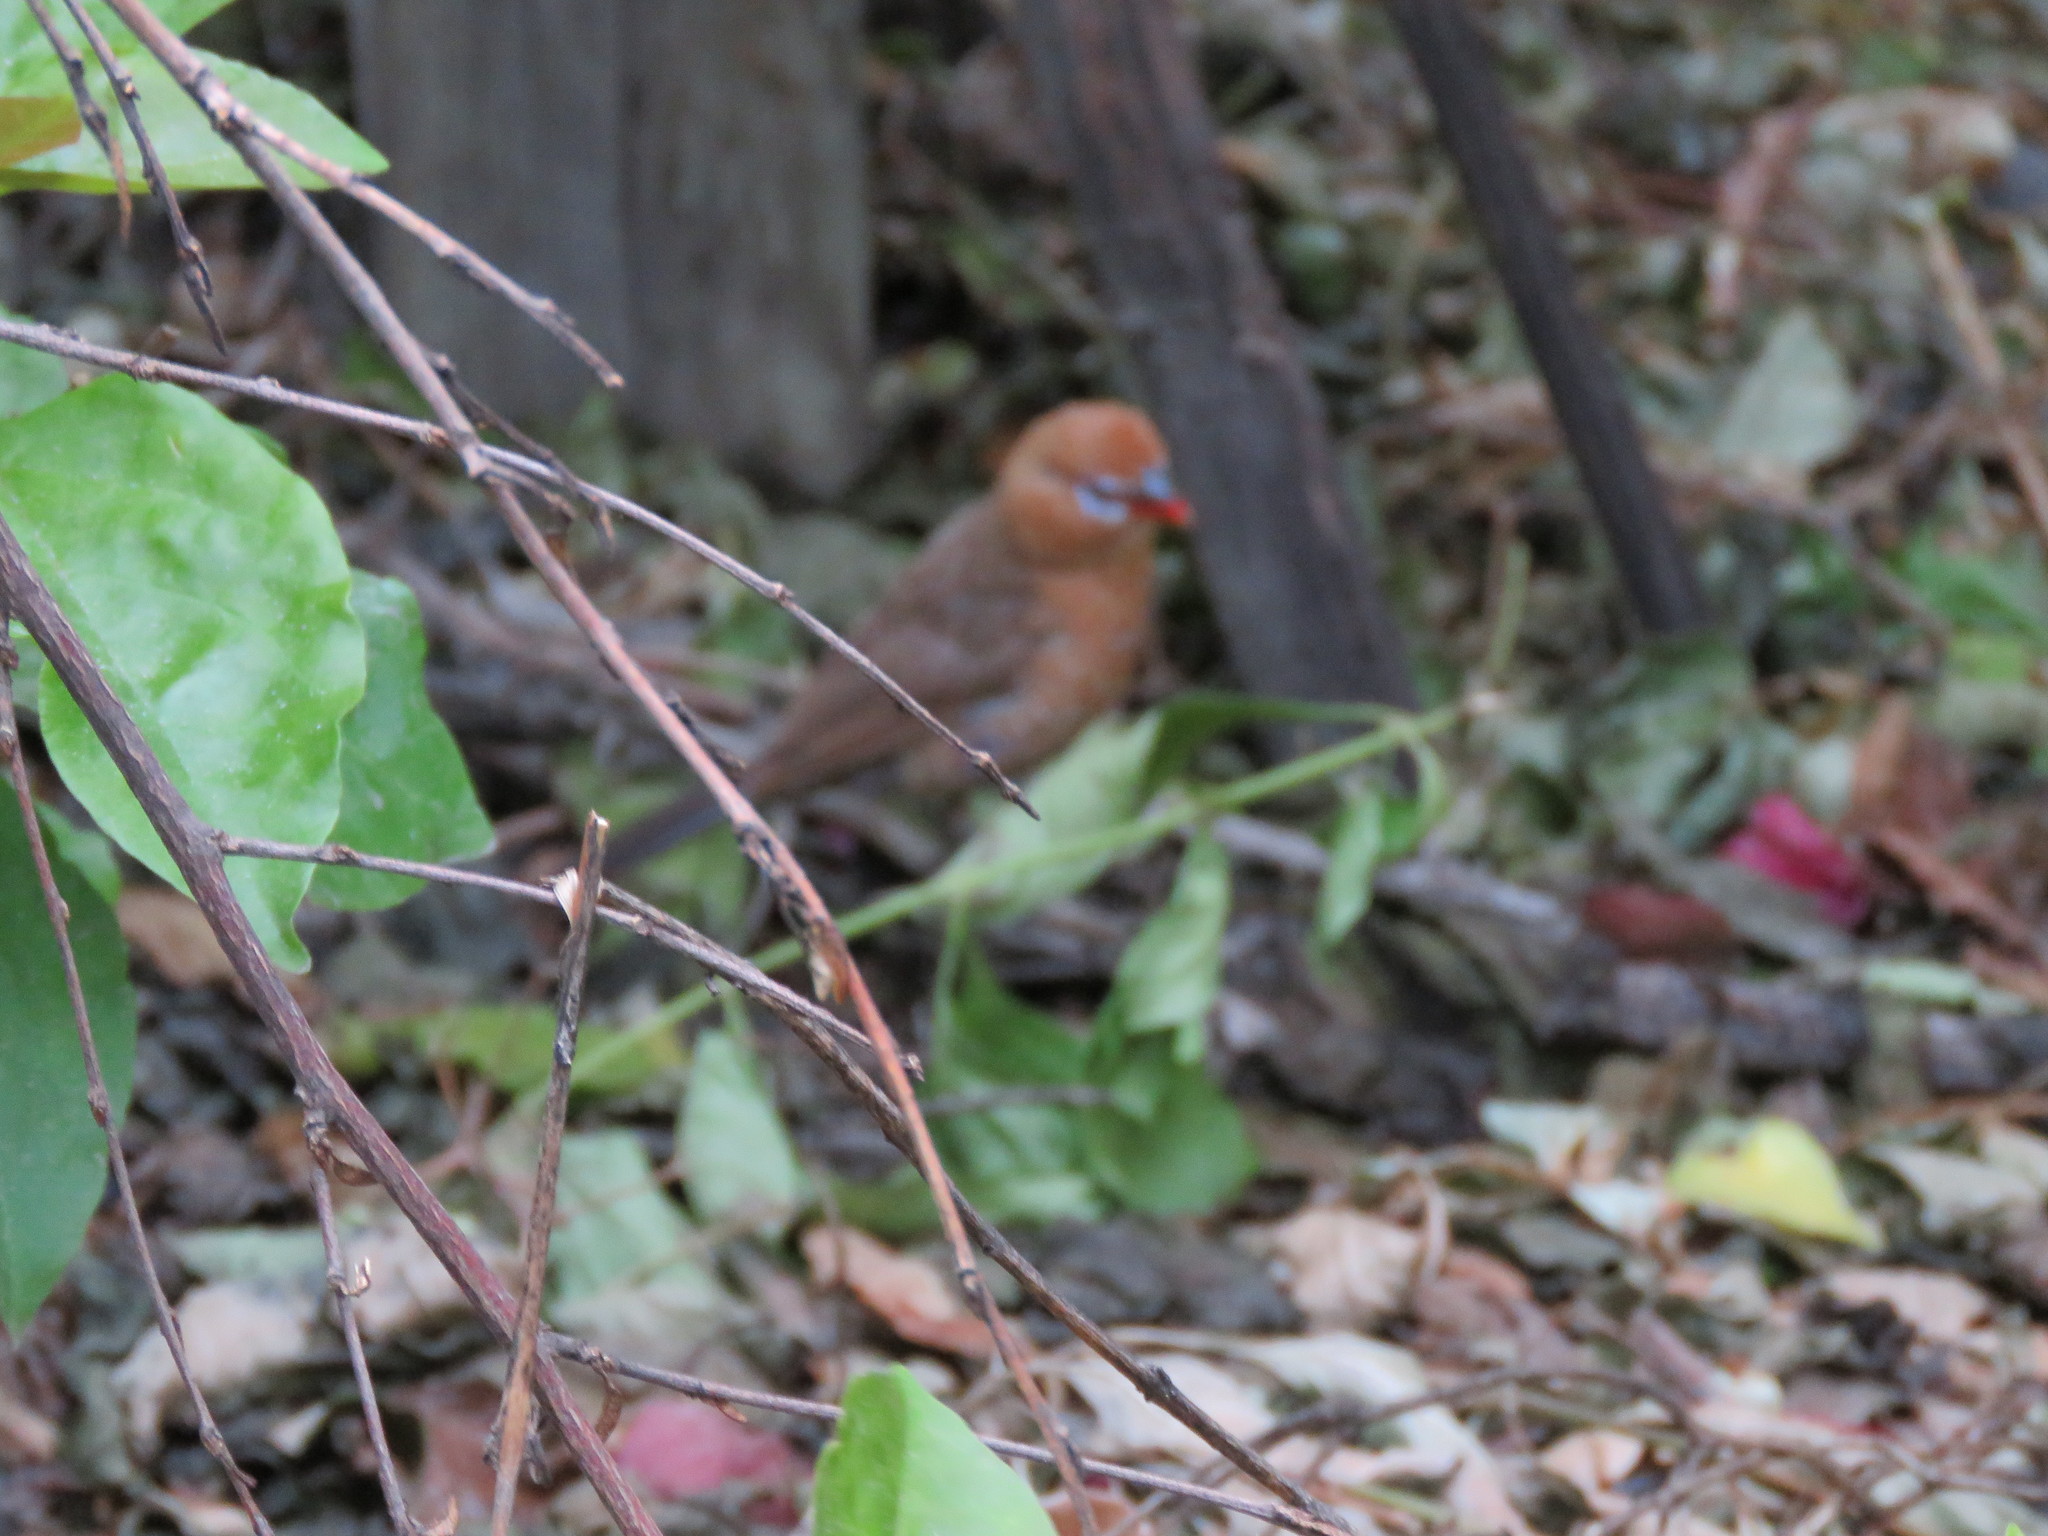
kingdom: Animalia
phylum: Chordata
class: Aves
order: Passeriformes
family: Estrildidae
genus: Uraeginthus
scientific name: Uraeginthus ianthinogaster
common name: Purple grenadier
